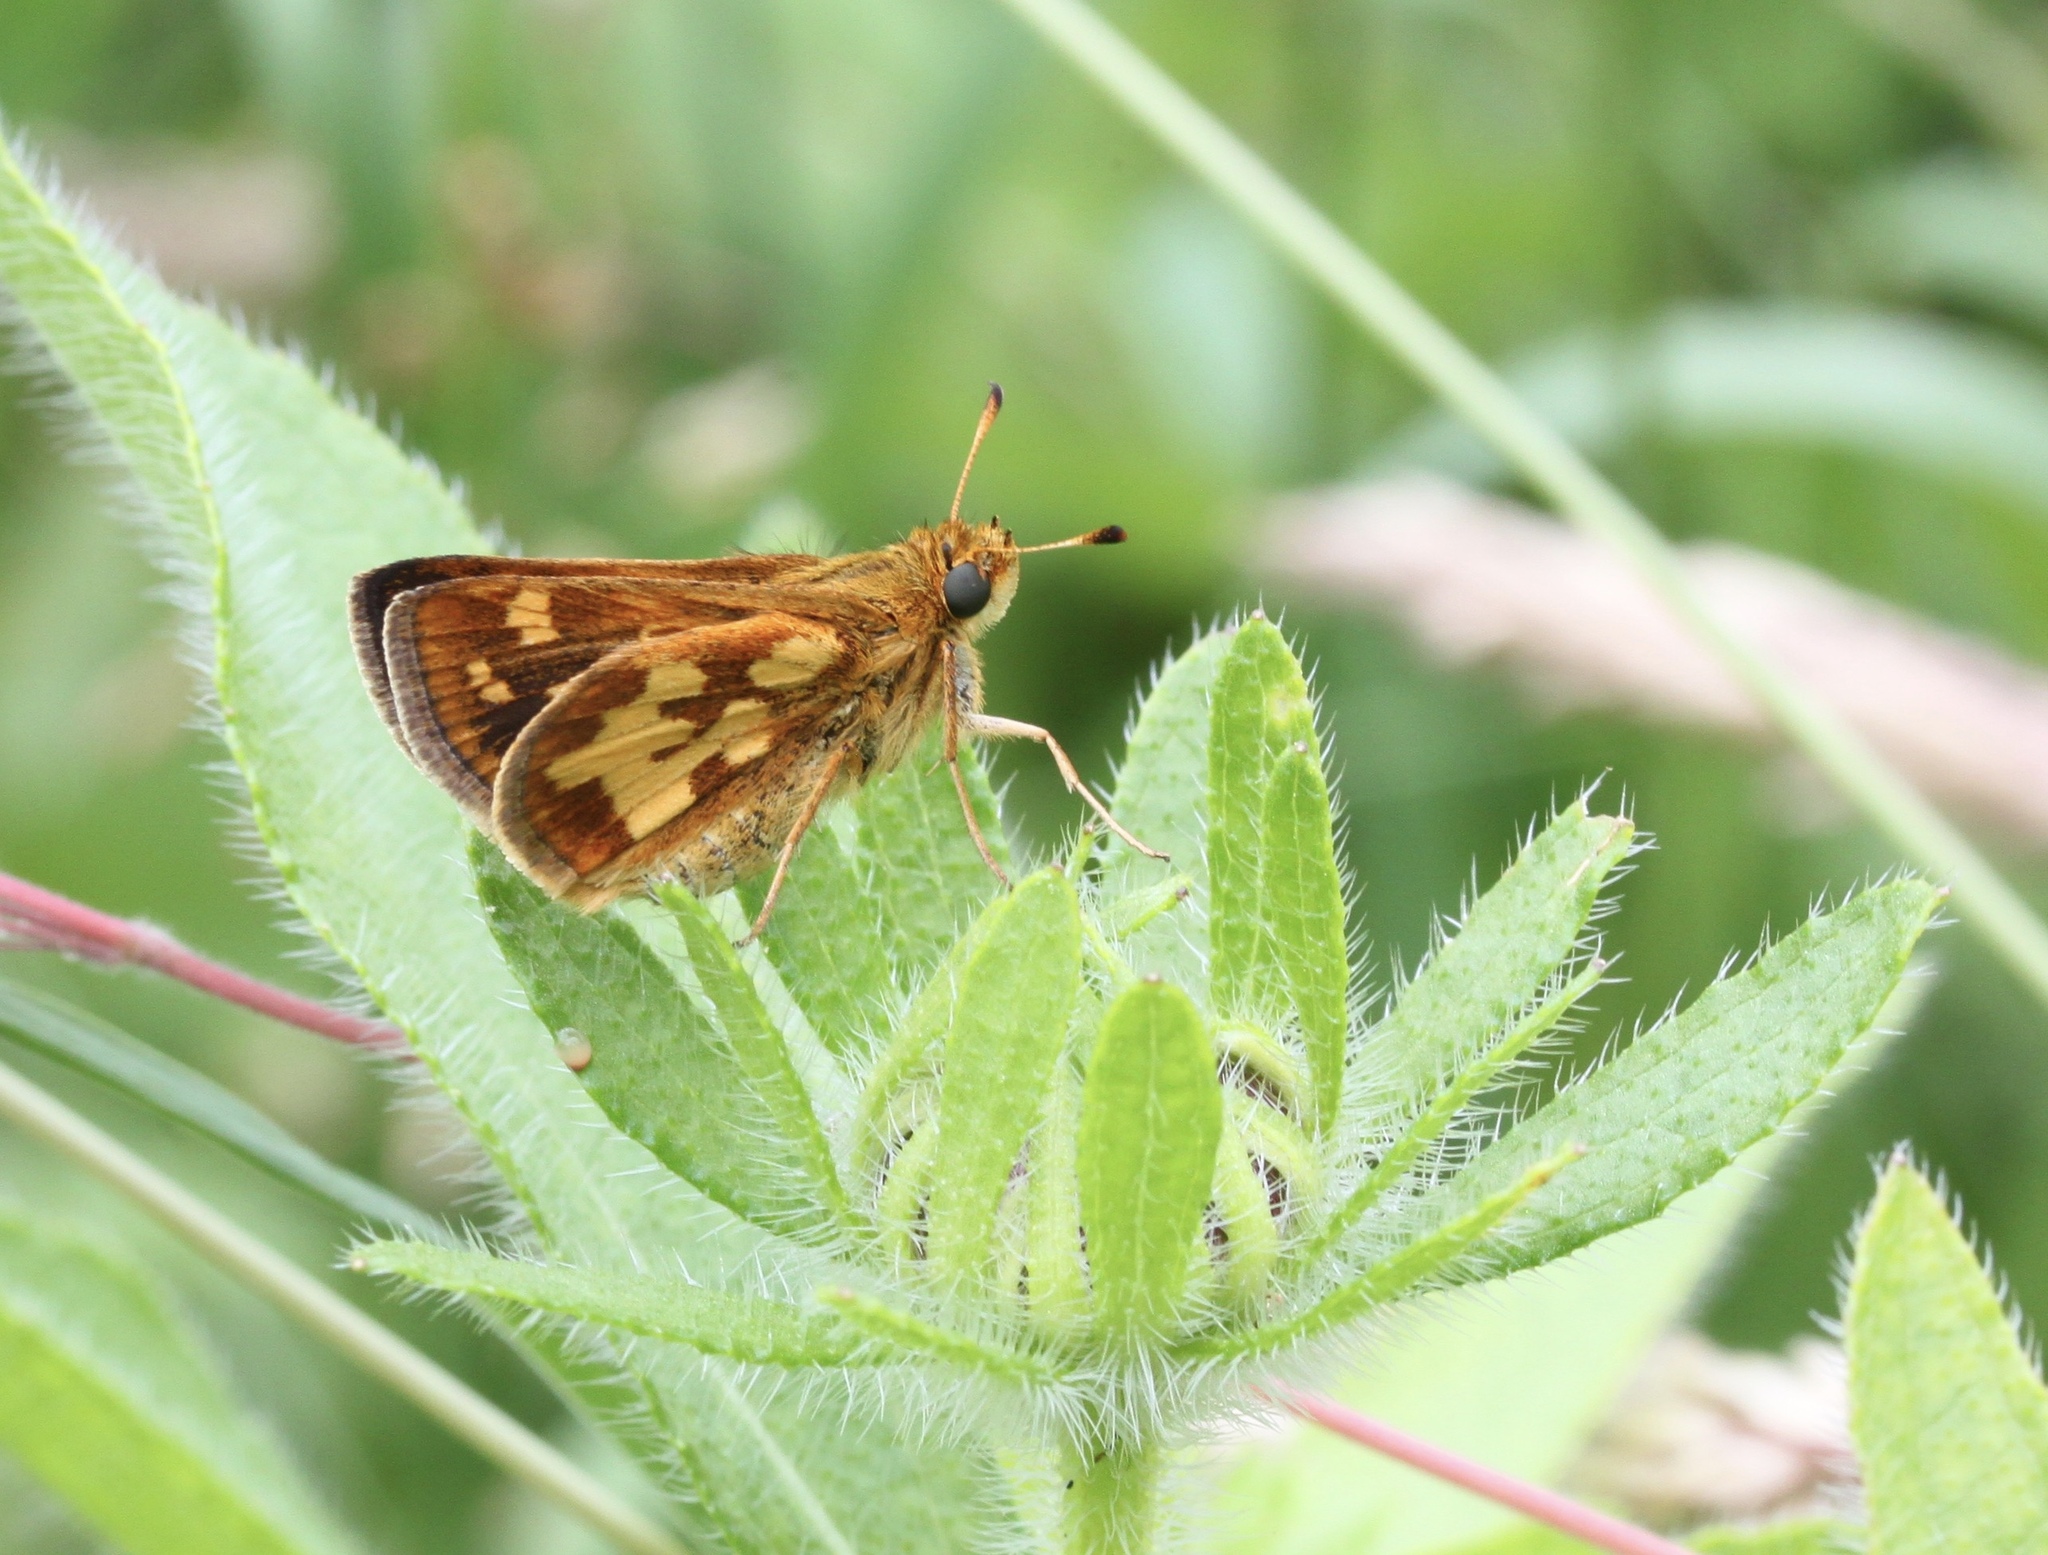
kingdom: Animalia
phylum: Arthropoda
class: Insecta
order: Lepidoptera
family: Hesperiidae
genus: Polites
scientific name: Polites coras
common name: Peck's skipper
